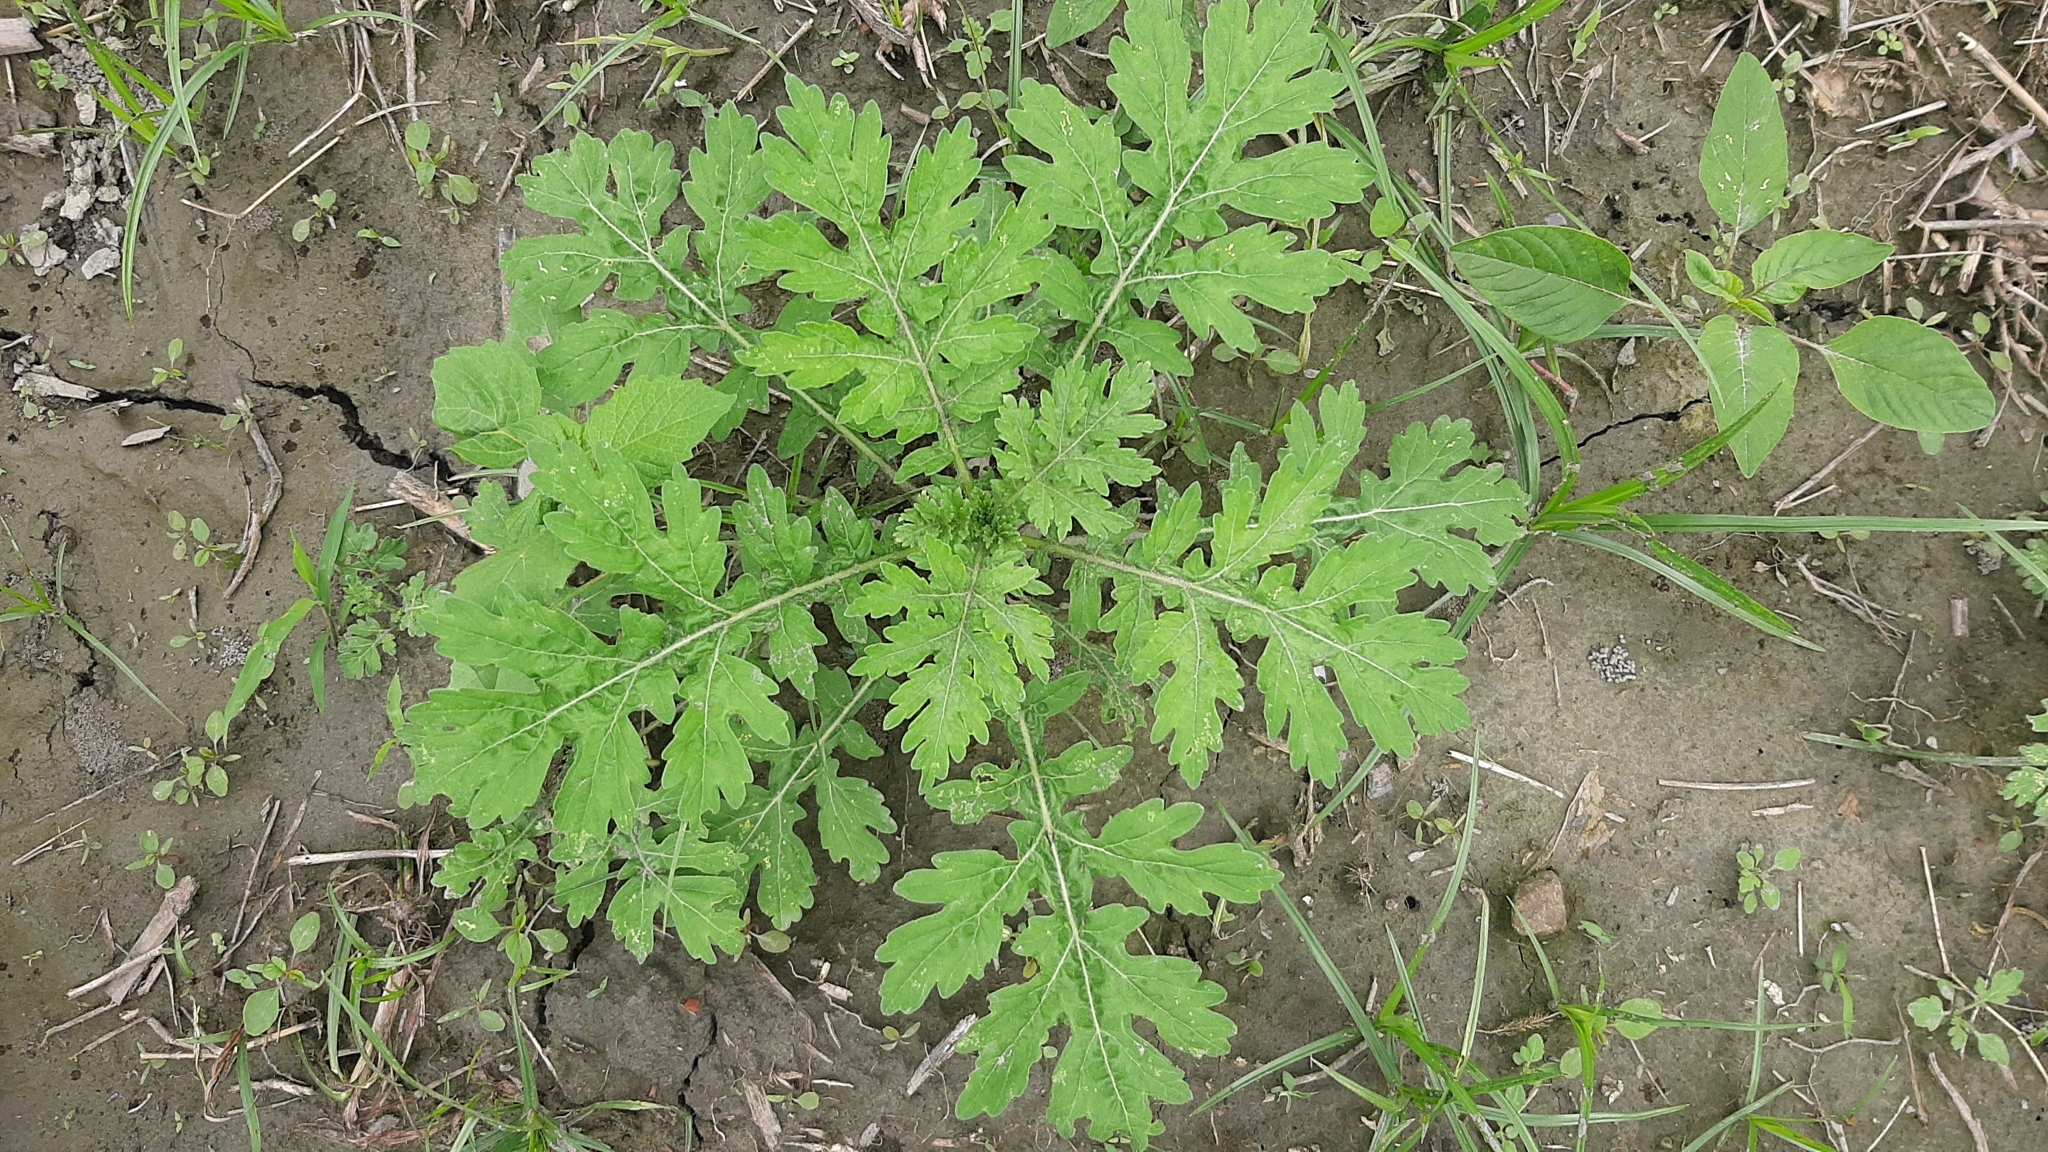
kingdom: Plantae
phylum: Tracheophyta
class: Magnoliopsida
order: Asterales
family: Asteraceae
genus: Parthenium
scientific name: Parthenium hysterophorus
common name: Santa maria feverfew
